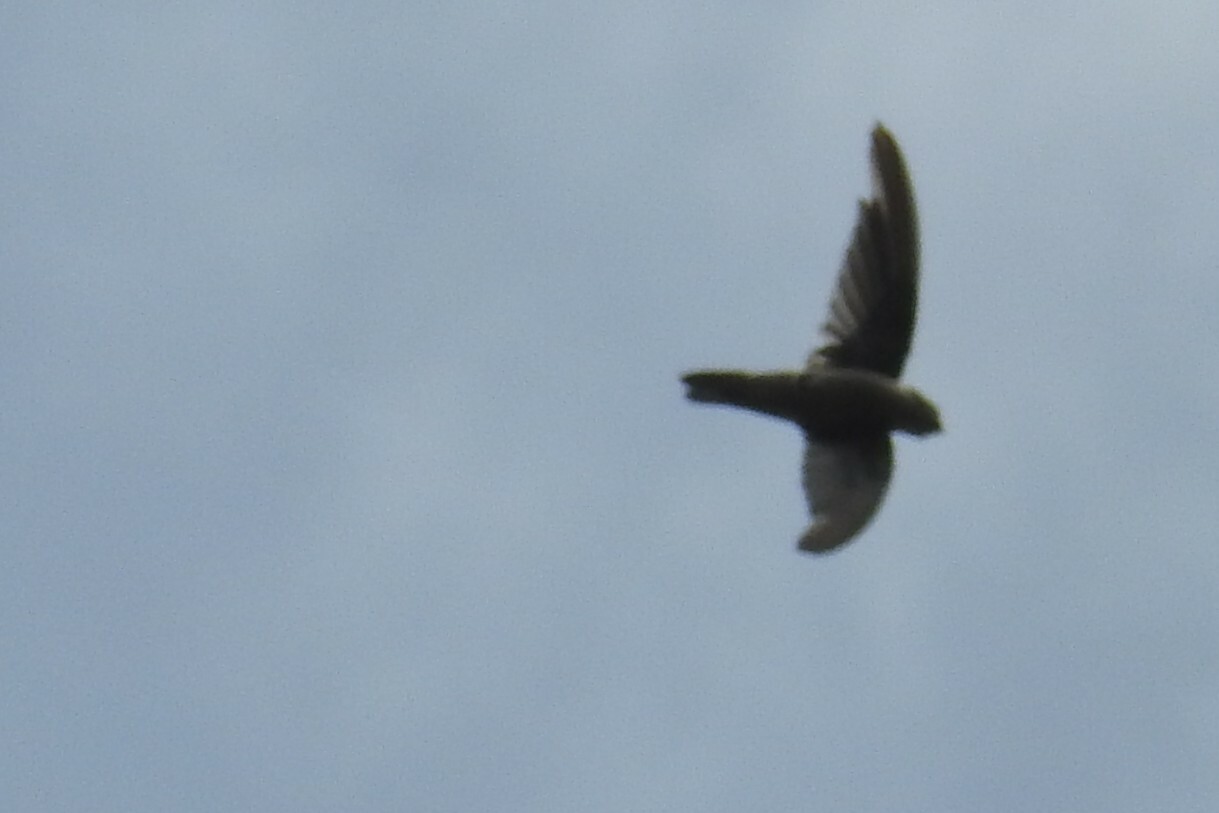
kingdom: Animalia
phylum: Chordata
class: Aves
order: Apodiformes
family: Apodidae
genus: Aerodramus
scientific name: Aerodramus unicolor
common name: Indian swiftlet
